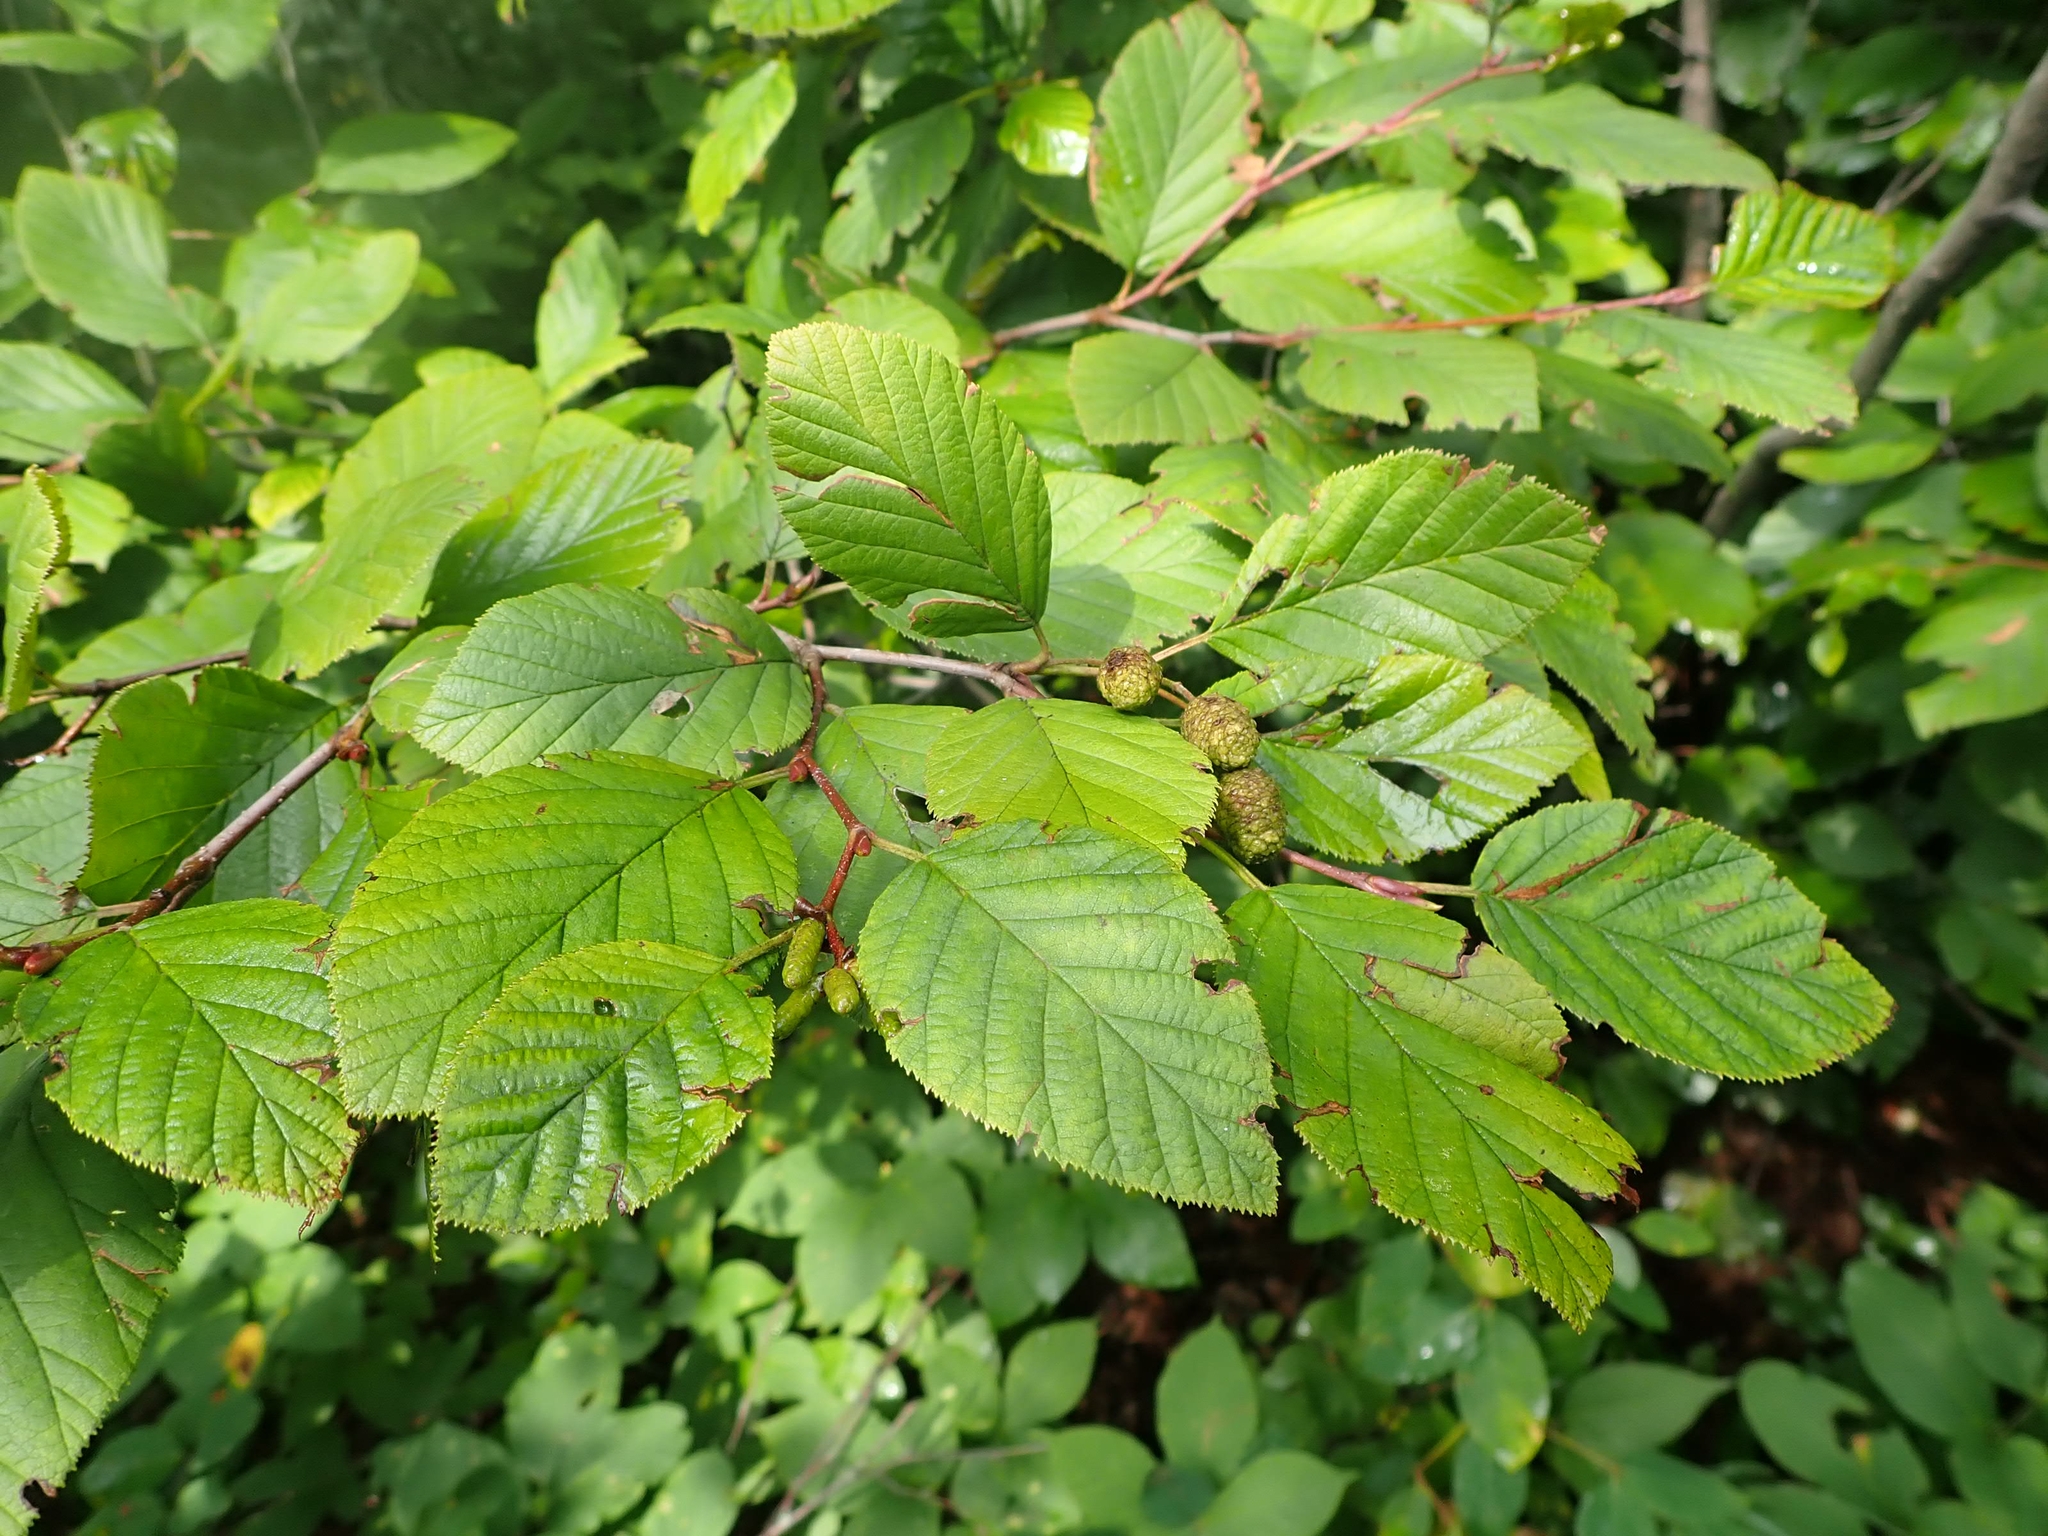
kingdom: Plantae
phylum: Tracheophyta
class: Magnoliopsida
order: Fagales
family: Betulaceae
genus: Alnus
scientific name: Alnus alnobetula
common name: Green alder
